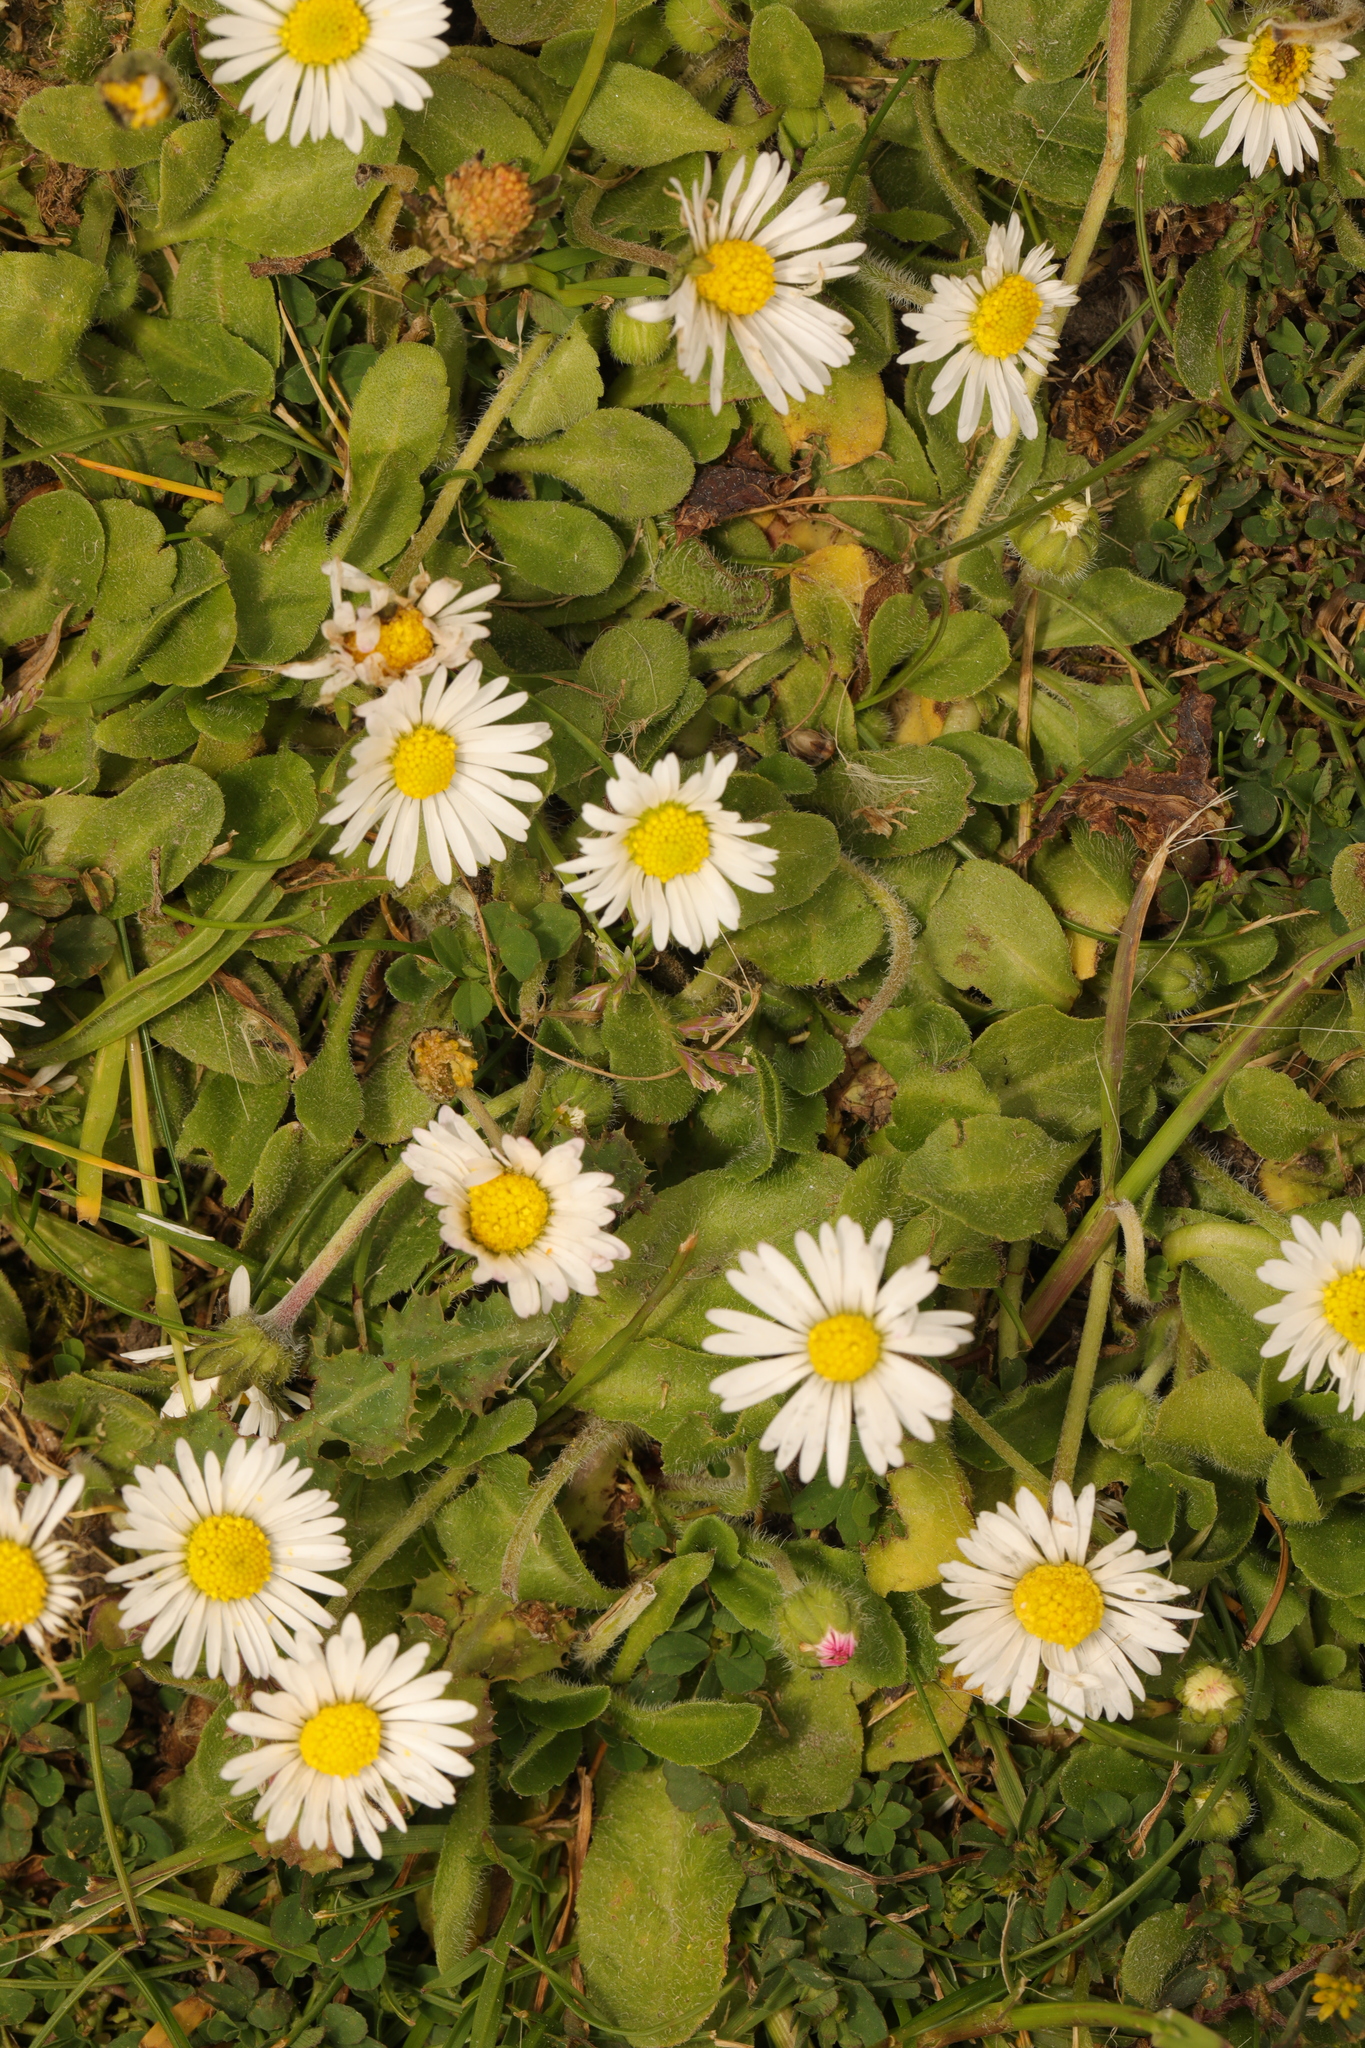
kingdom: Plantae
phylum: Tracheophyta
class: Magnoliopsida
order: Asterales
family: Asteraceae
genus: Bellis
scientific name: Bellis perennis
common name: Lawndaisy
